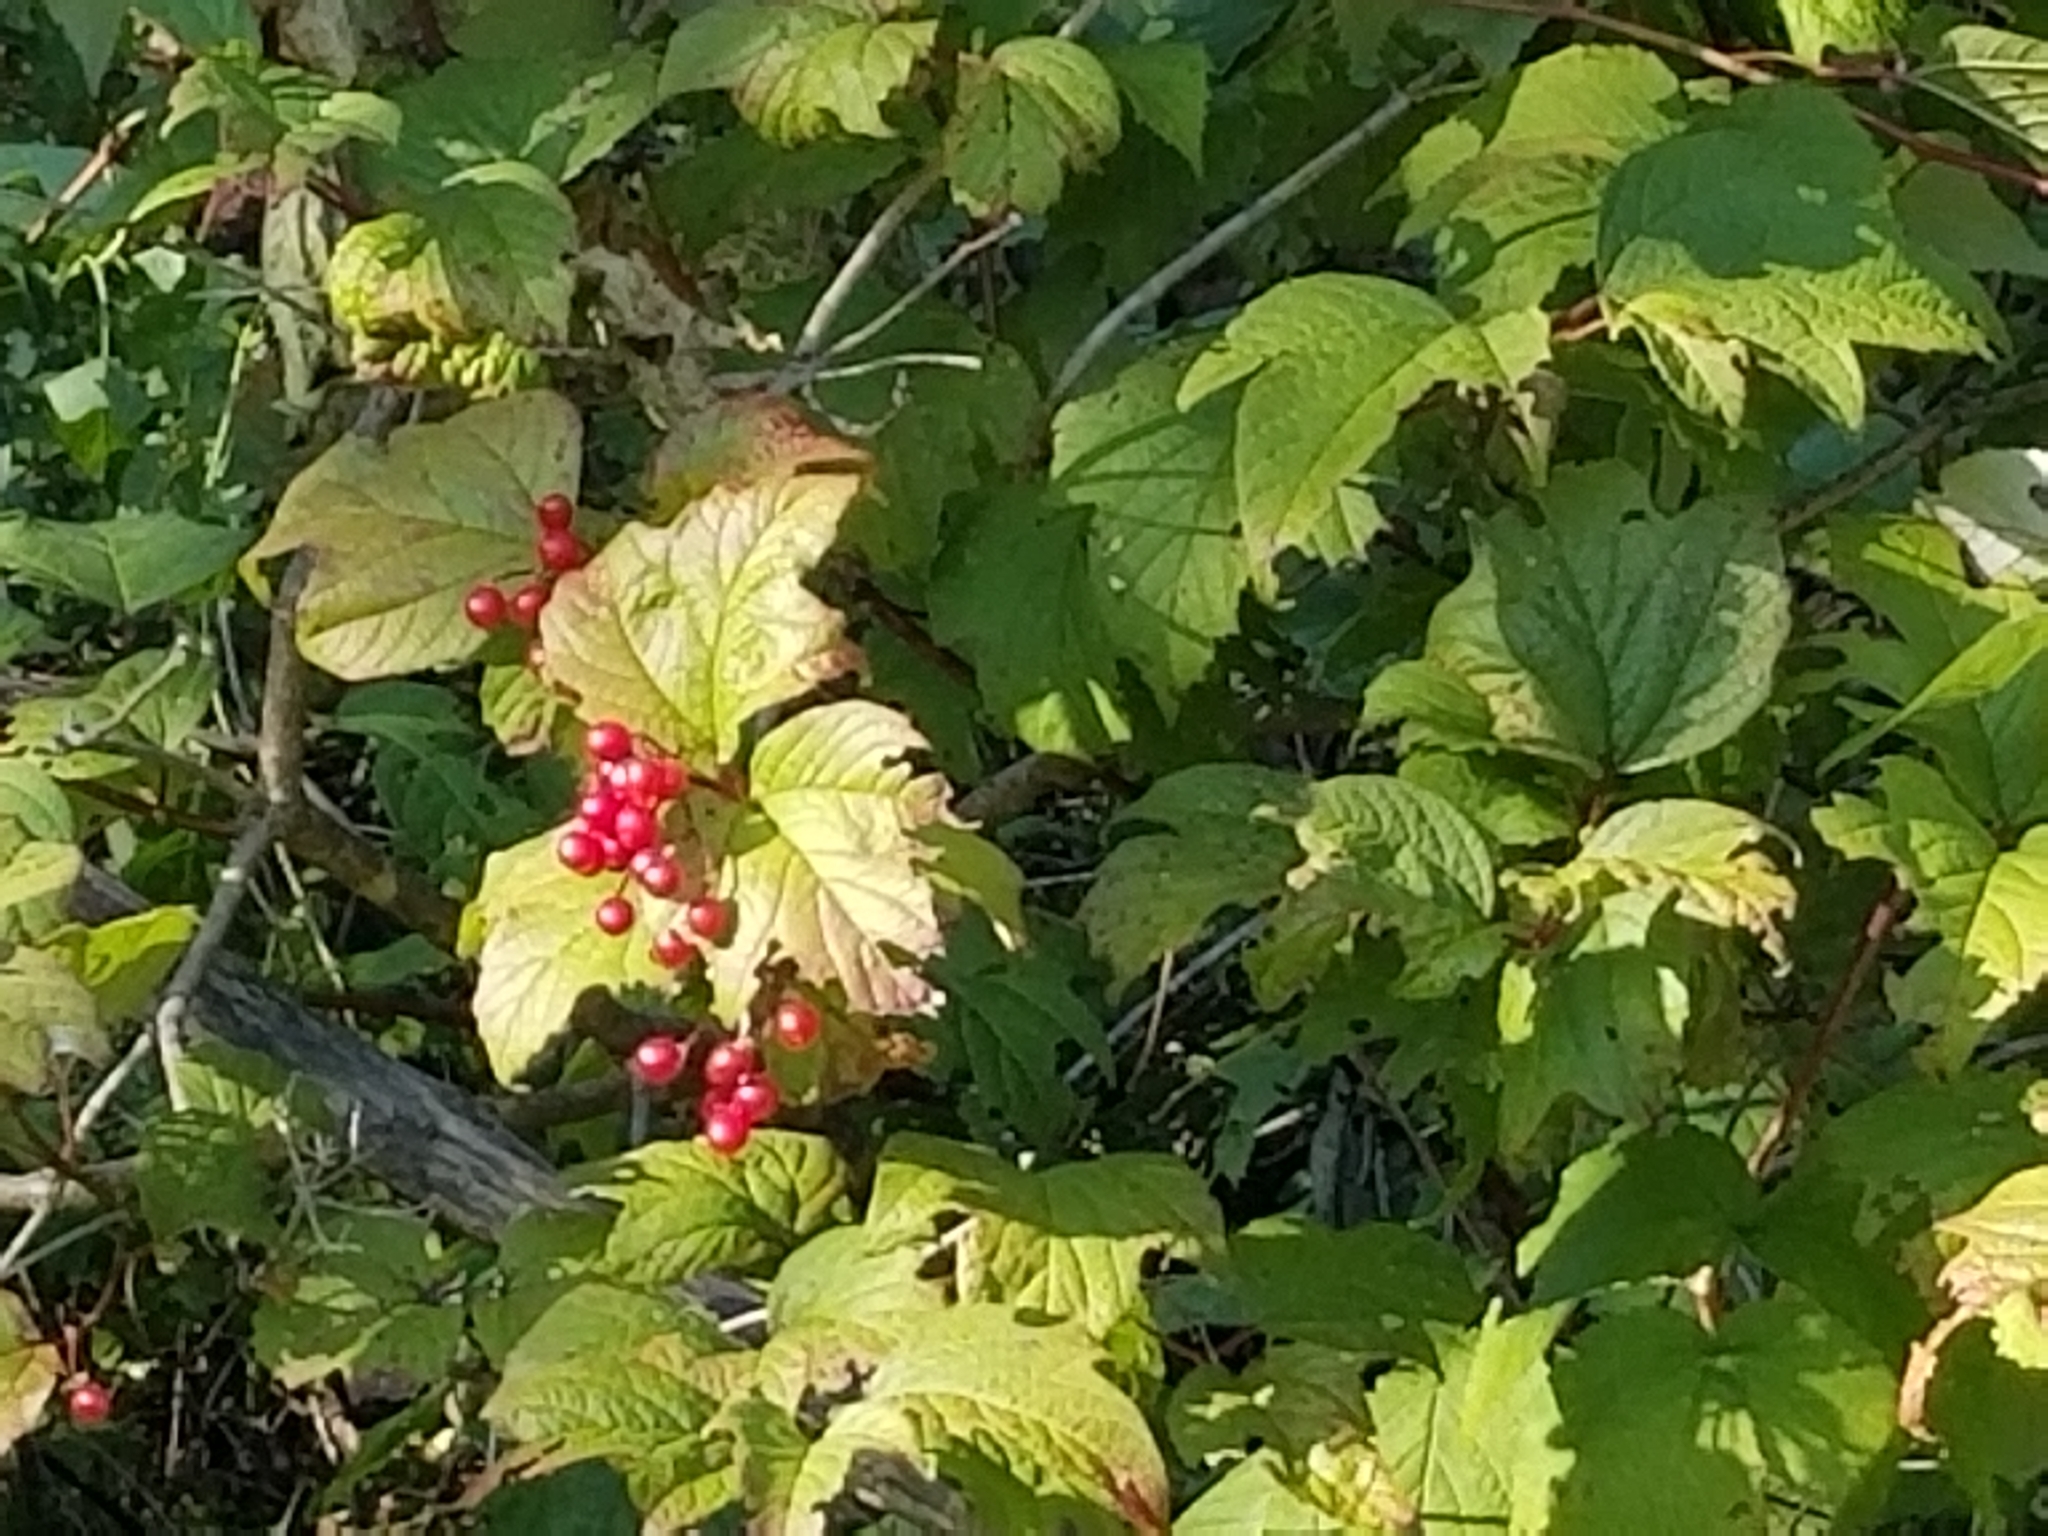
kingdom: Plantae
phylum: Tracheophyta
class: Magnoliopsida
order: Dipsacales
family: Viburnaceae
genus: Viburnum
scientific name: Viburnum opulus
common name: Guelder-rose
